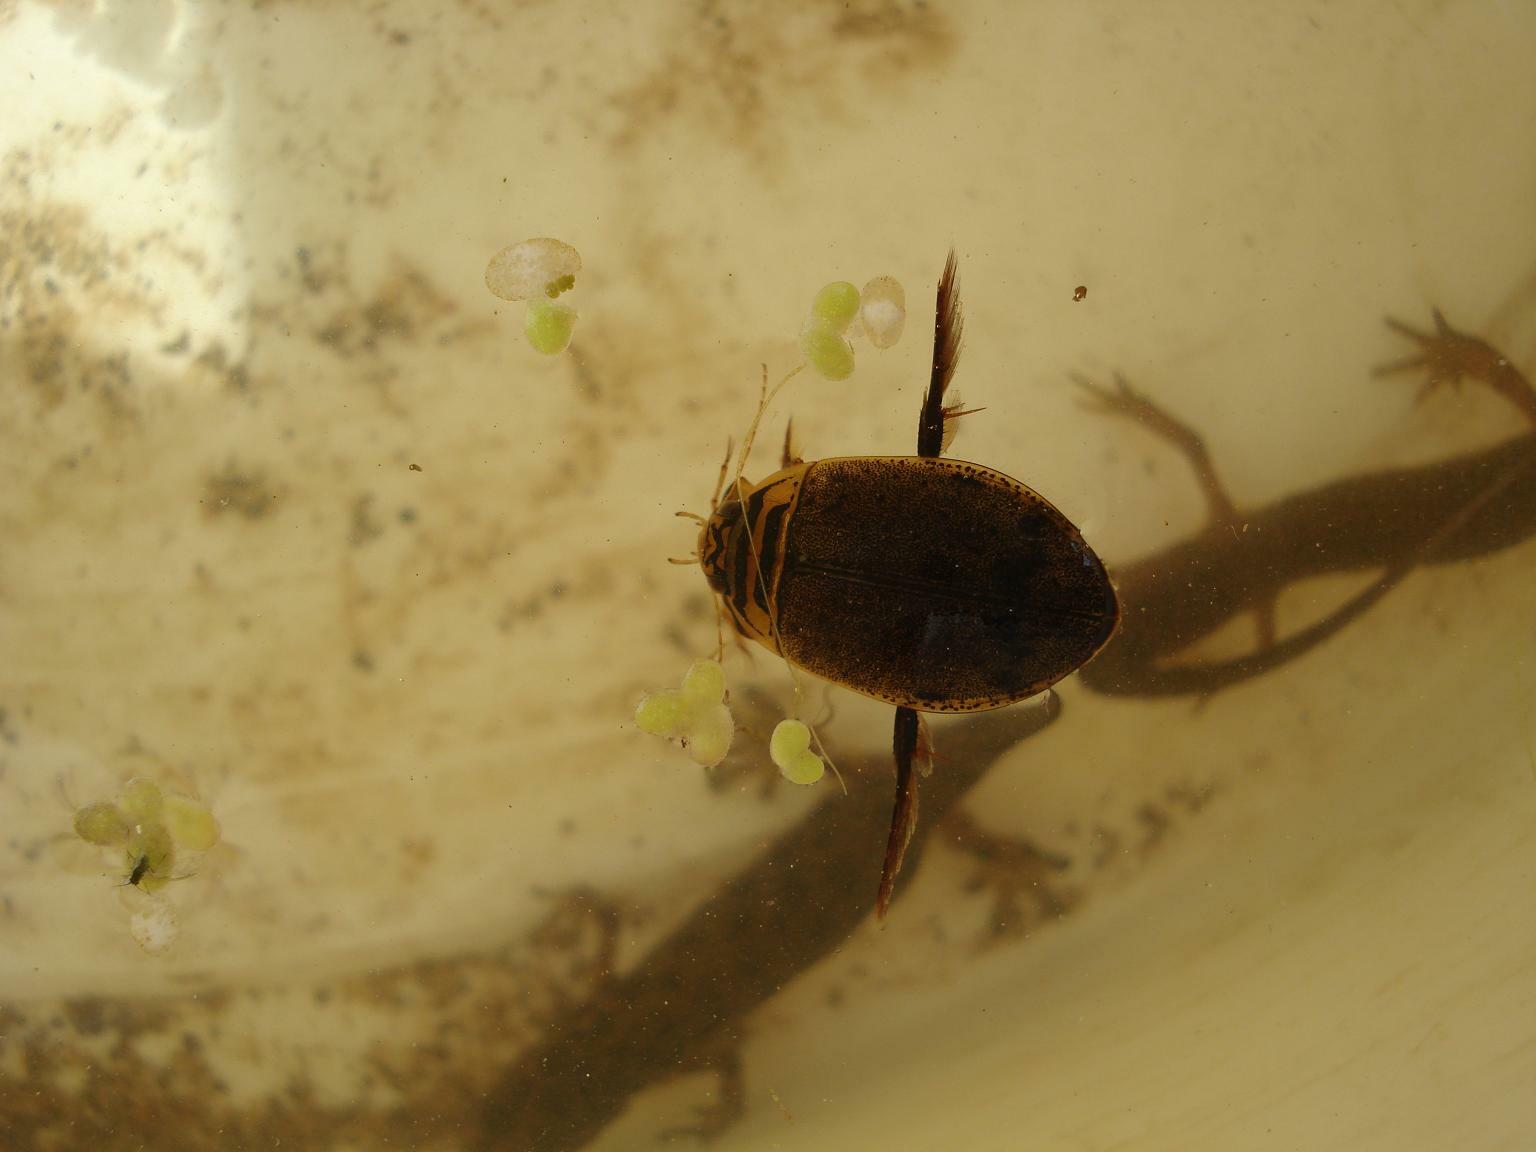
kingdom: Animalia
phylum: Arthropoda
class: Insecta
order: Coleoptera
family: Dytiscidae
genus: Acilius
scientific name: Acilius canaliculatus
